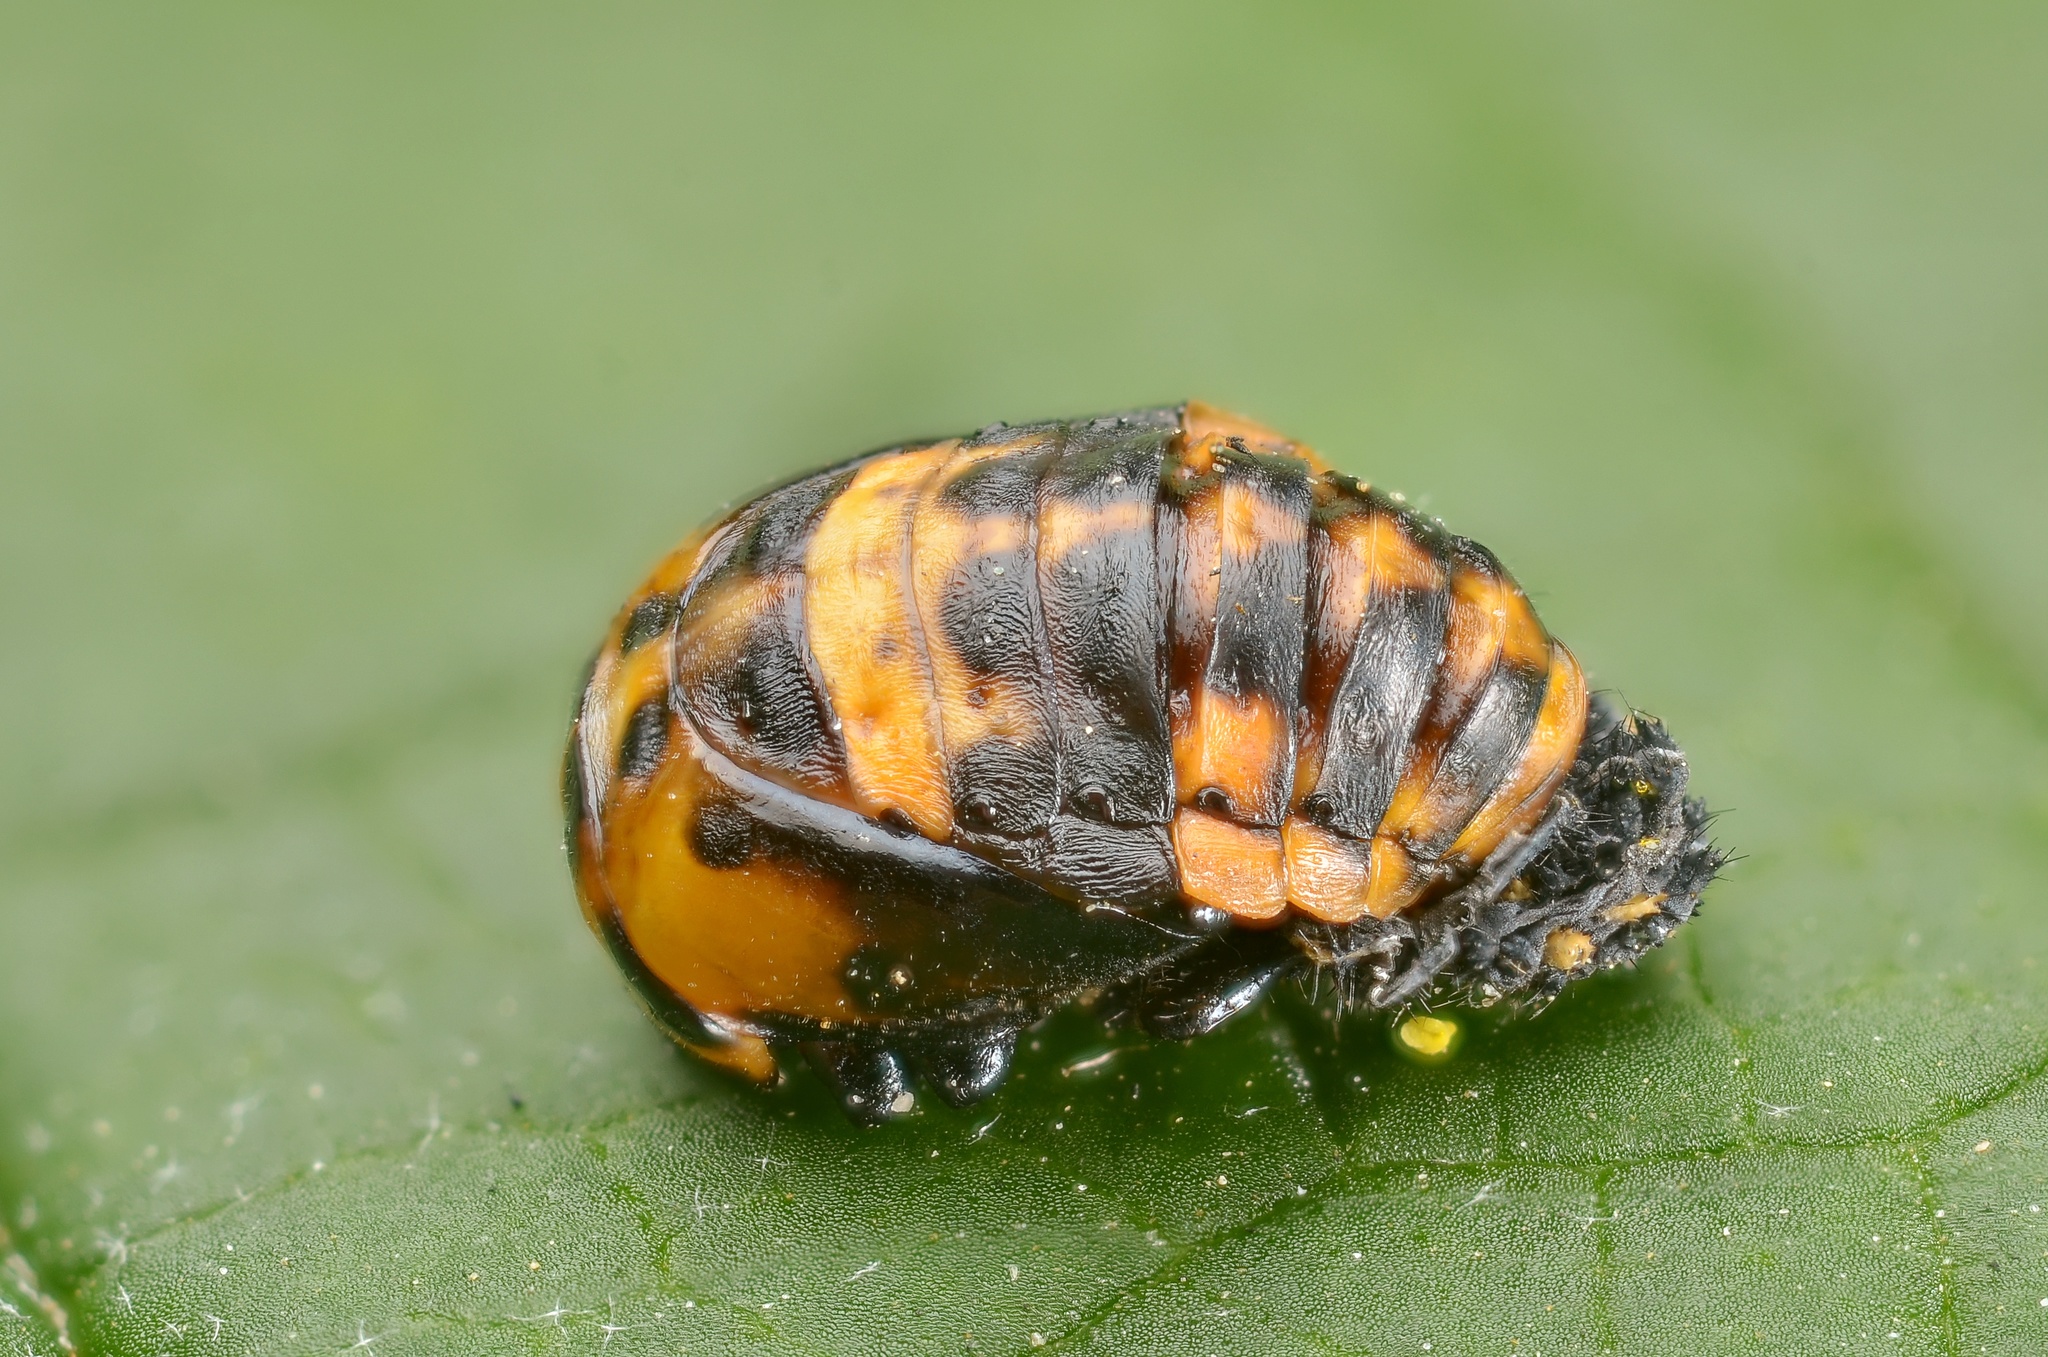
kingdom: Animalia
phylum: Arthropoda
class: Insecta
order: Coleoptera
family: Coccinellidae
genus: Coccinella
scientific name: Coccinella septempunctata
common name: Sevenspotted lady beetle
